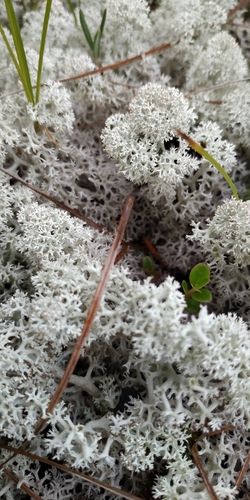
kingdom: Fungi
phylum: Ascomycota
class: Lecanoromycetes
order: Lecanorales
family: Cladoniaceae
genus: Cladonia
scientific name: Cladonia stellaris
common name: Star-tipped reindeer lichen
